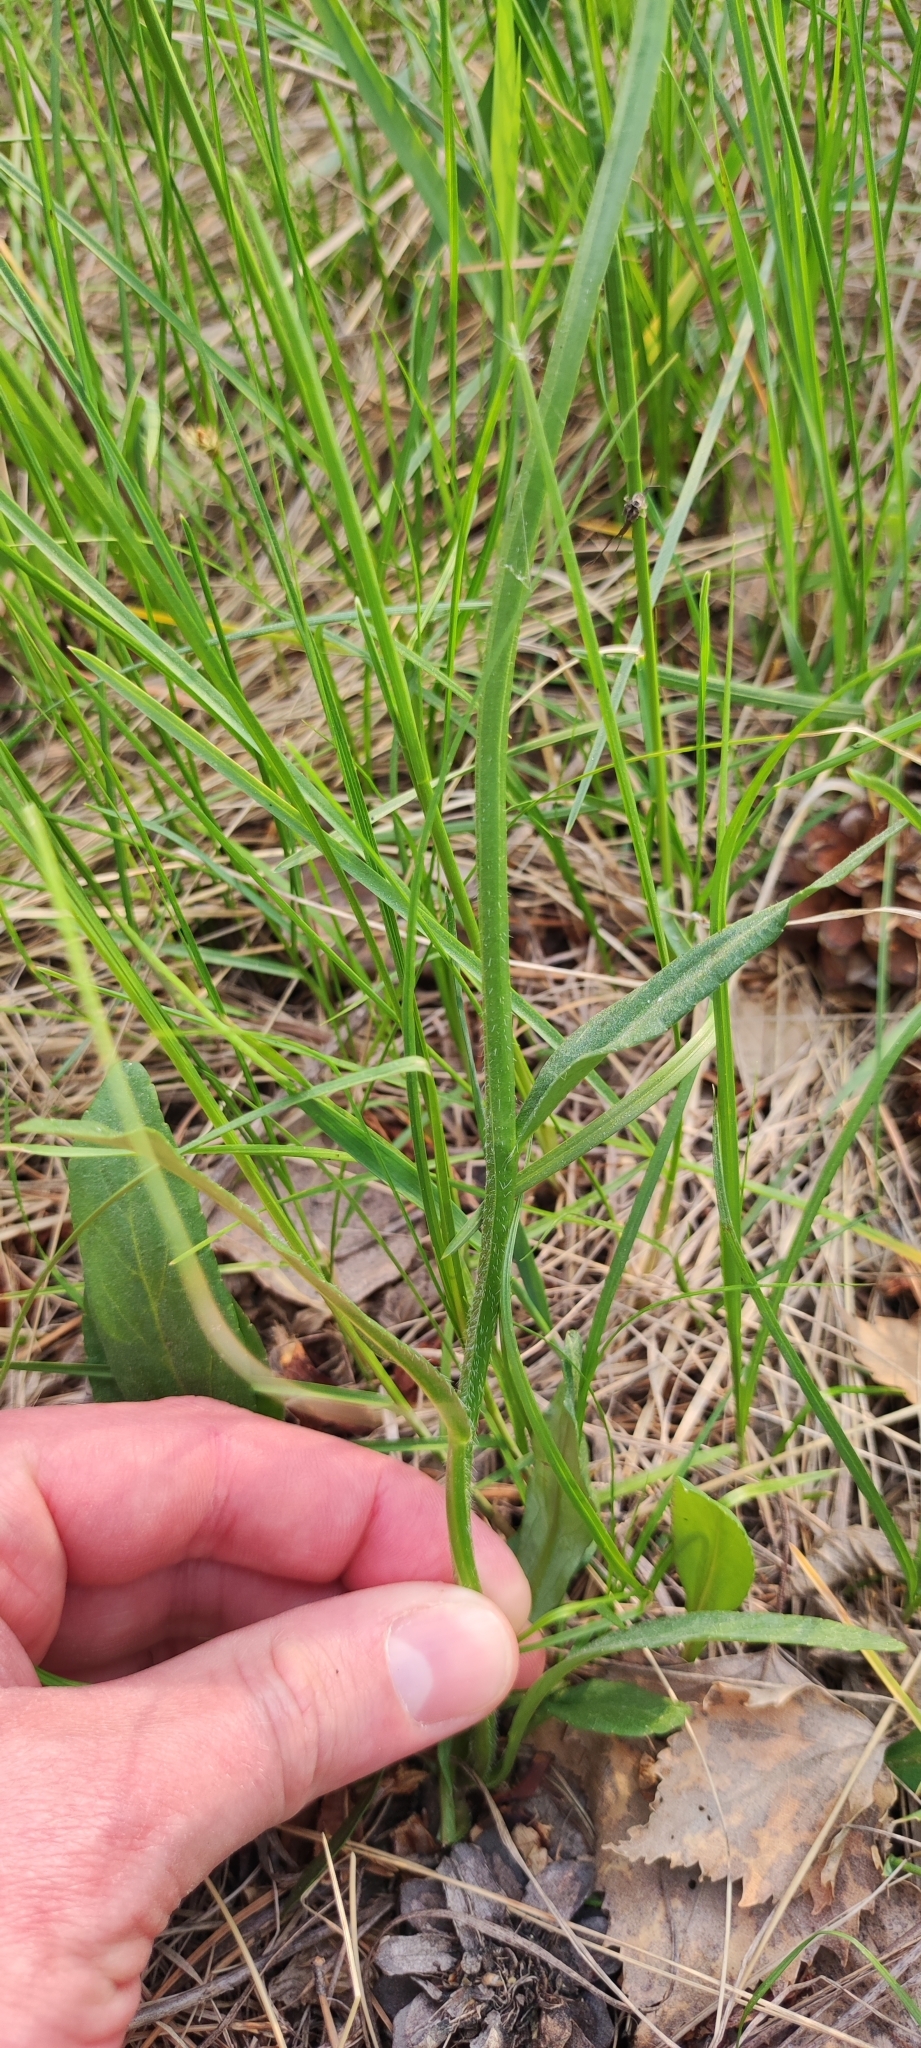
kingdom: Plantae
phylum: Tracheophyta
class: Magnoliopsida
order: Asterales
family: Campanulaceae
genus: Campanula
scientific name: Campanula stevenii
